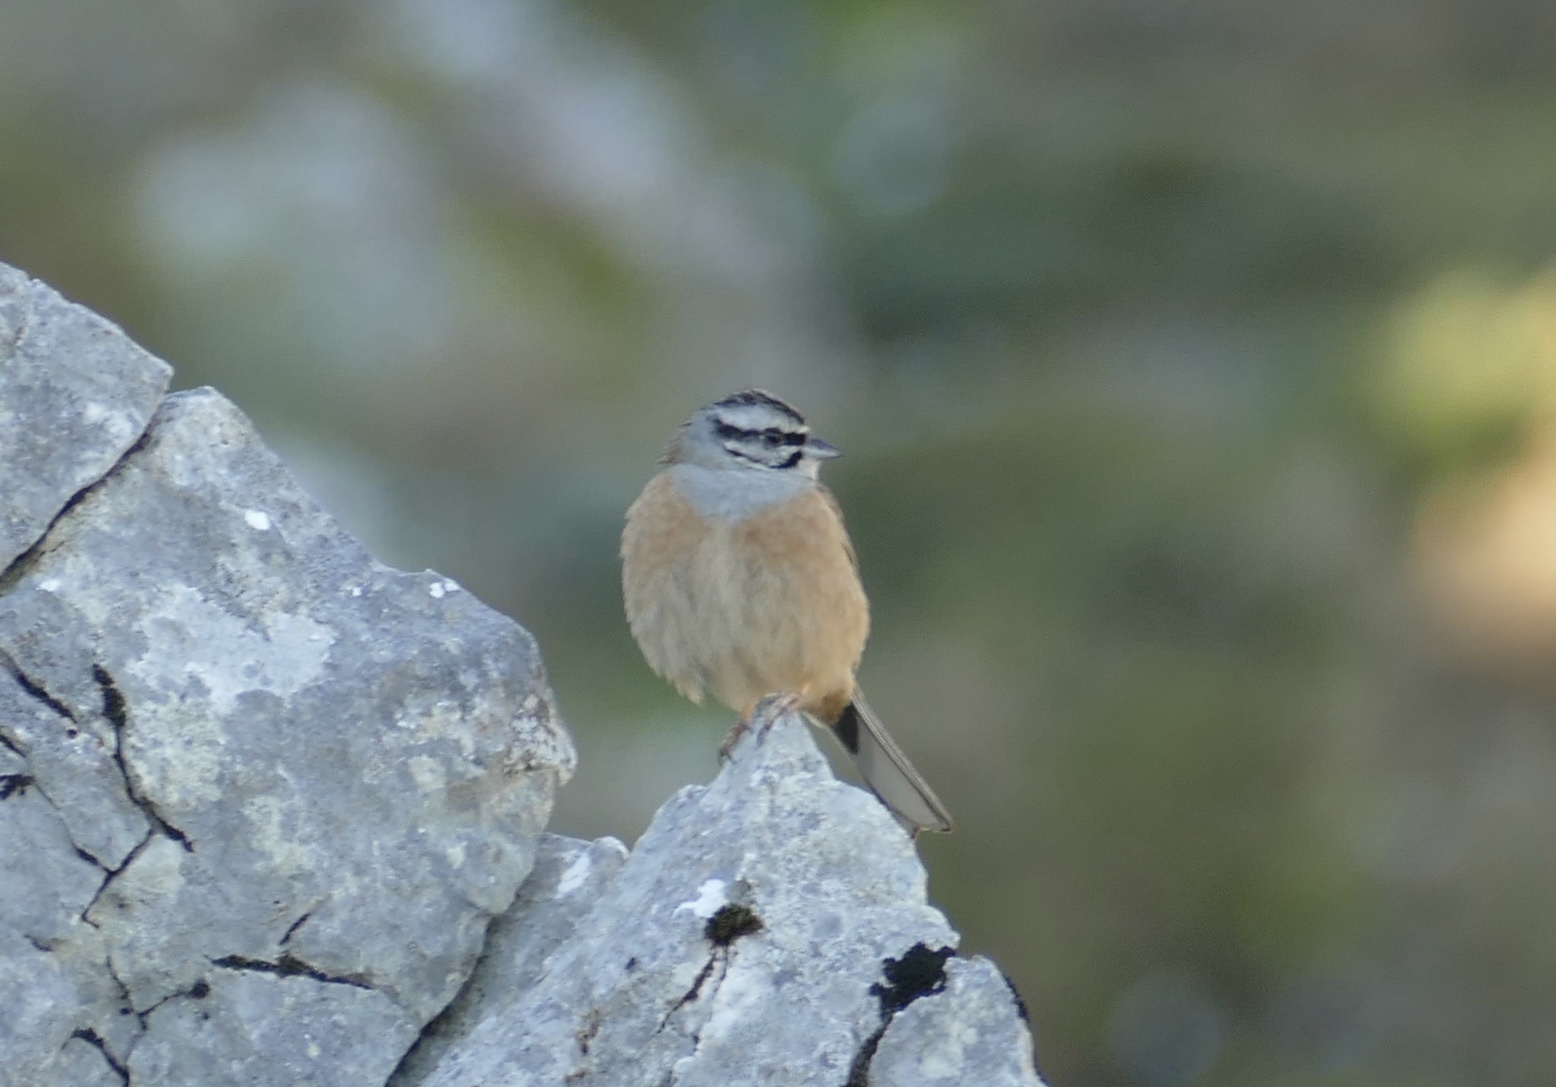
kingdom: Animalia
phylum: Chordata
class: Aves
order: Passeriformes
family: Emberizidae
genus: Emberiza
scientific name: Emberiza cia
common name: Rock bunting
